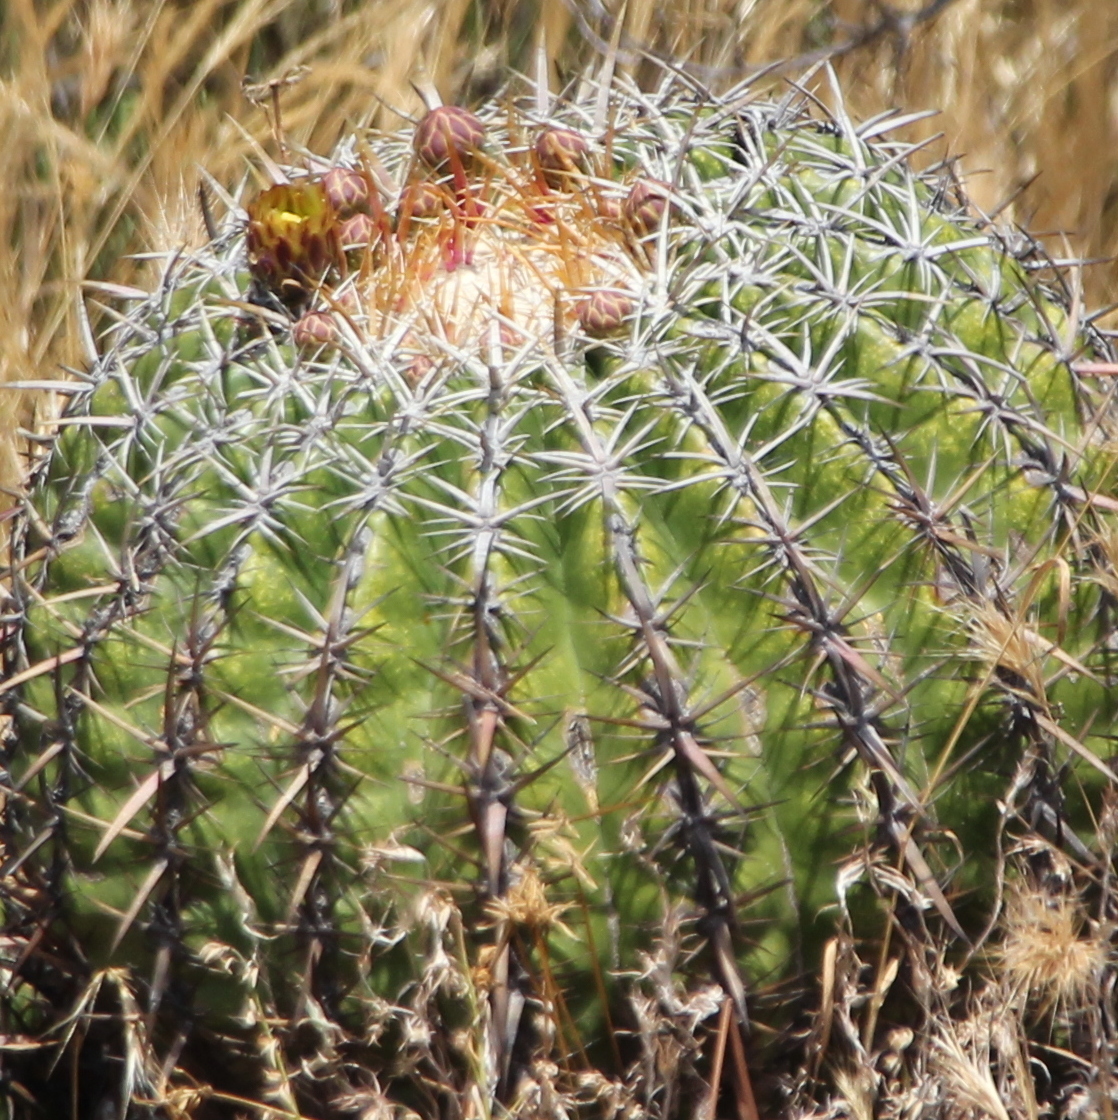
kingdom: Plantae
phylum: Tracheophyta
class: Magnoliopsida
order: Caryophyllales
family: Cactaceae
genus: Ferocactus
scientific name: Ferocactus viridescens
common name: San diego barrel cactus
